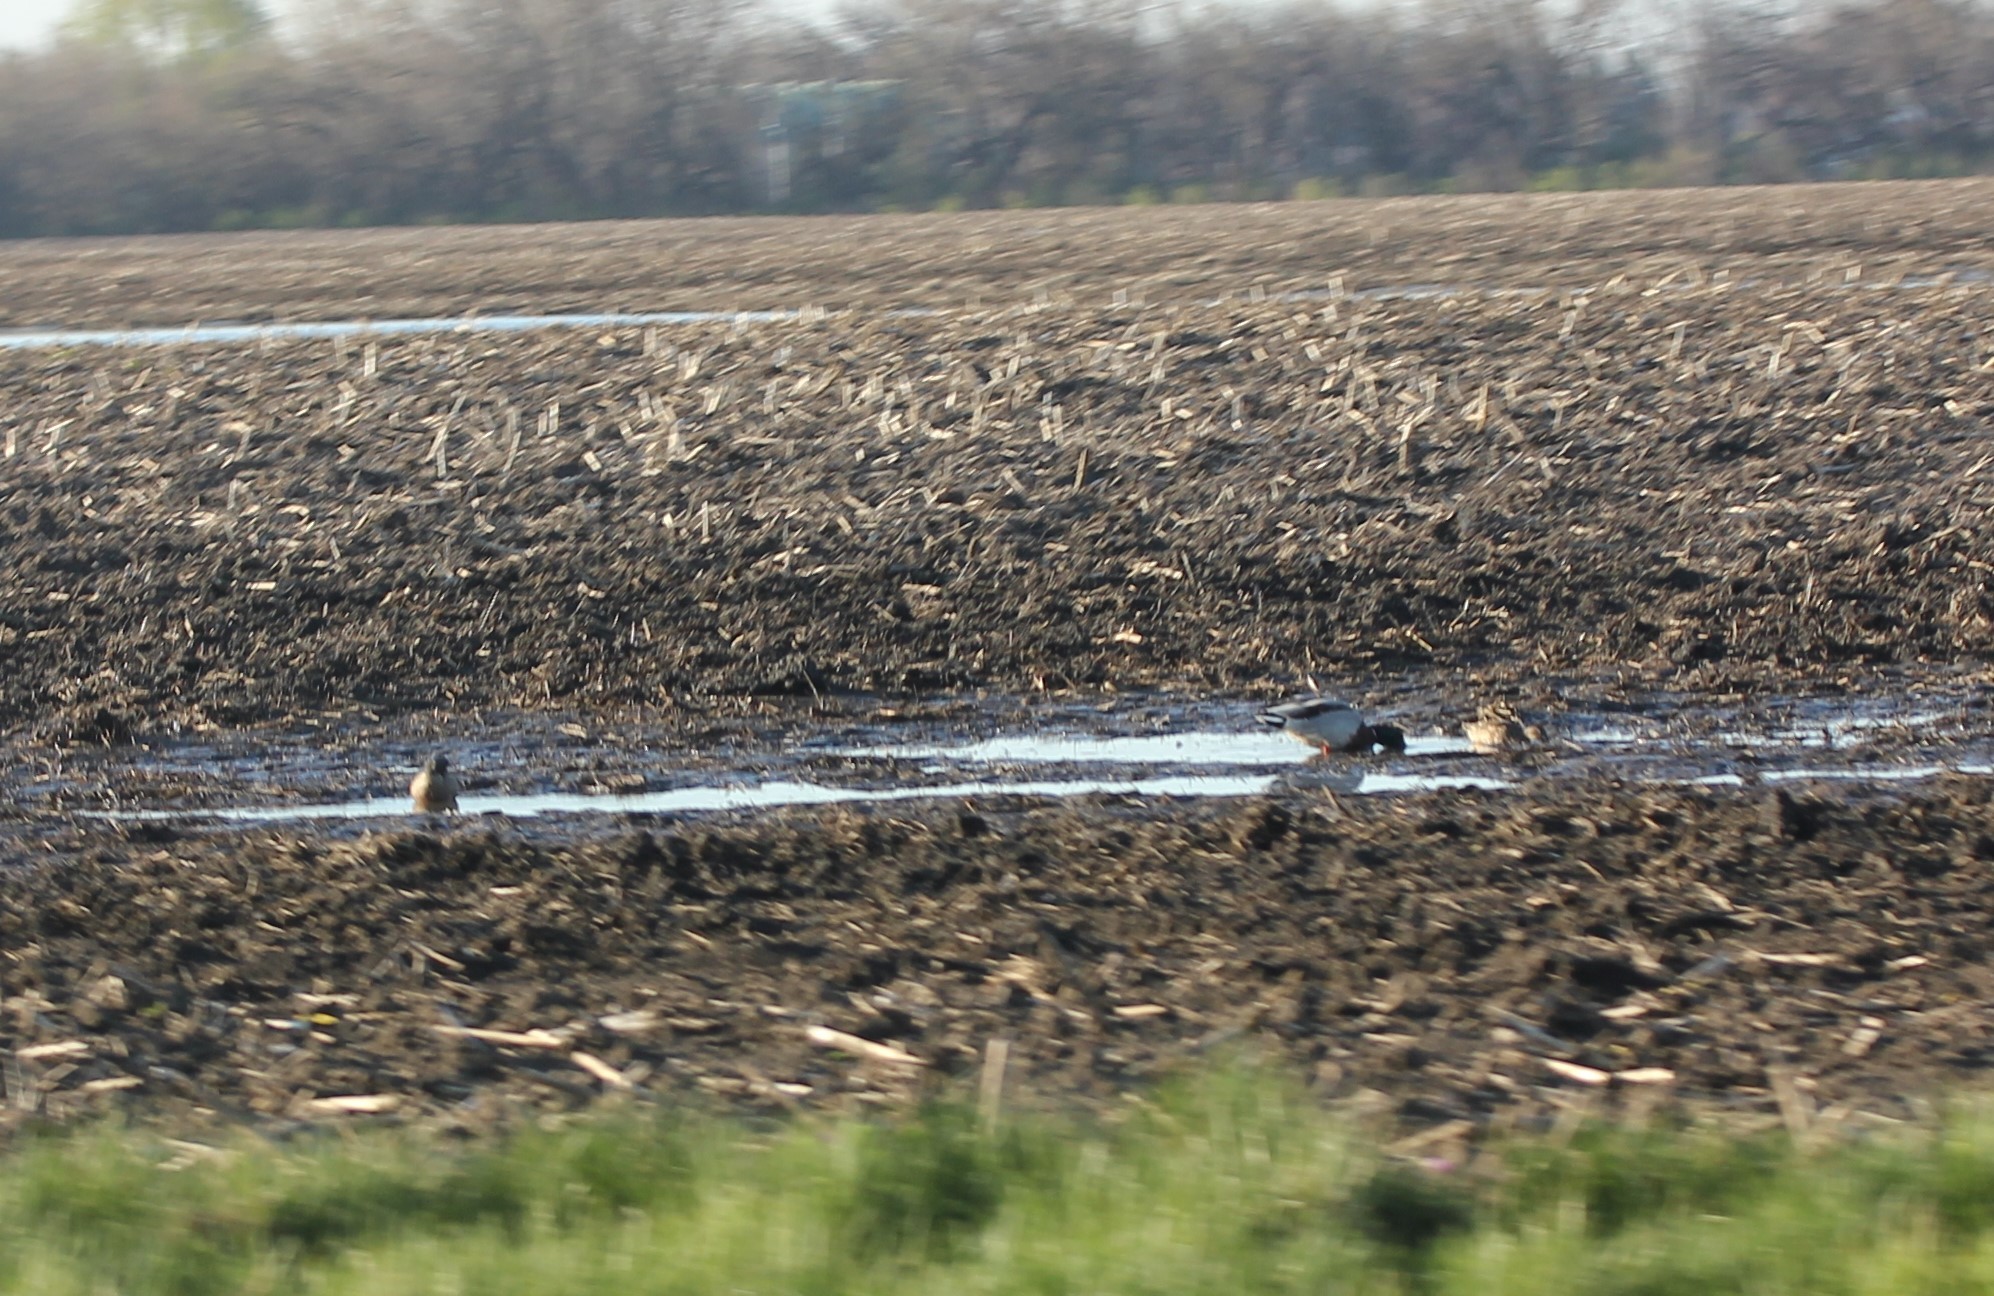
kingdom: Animalia
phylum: Chordata
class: Aves
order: Anseriformes
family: Anatidae
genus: Anas
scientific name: Anas platyrhynchos
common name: Mallard
